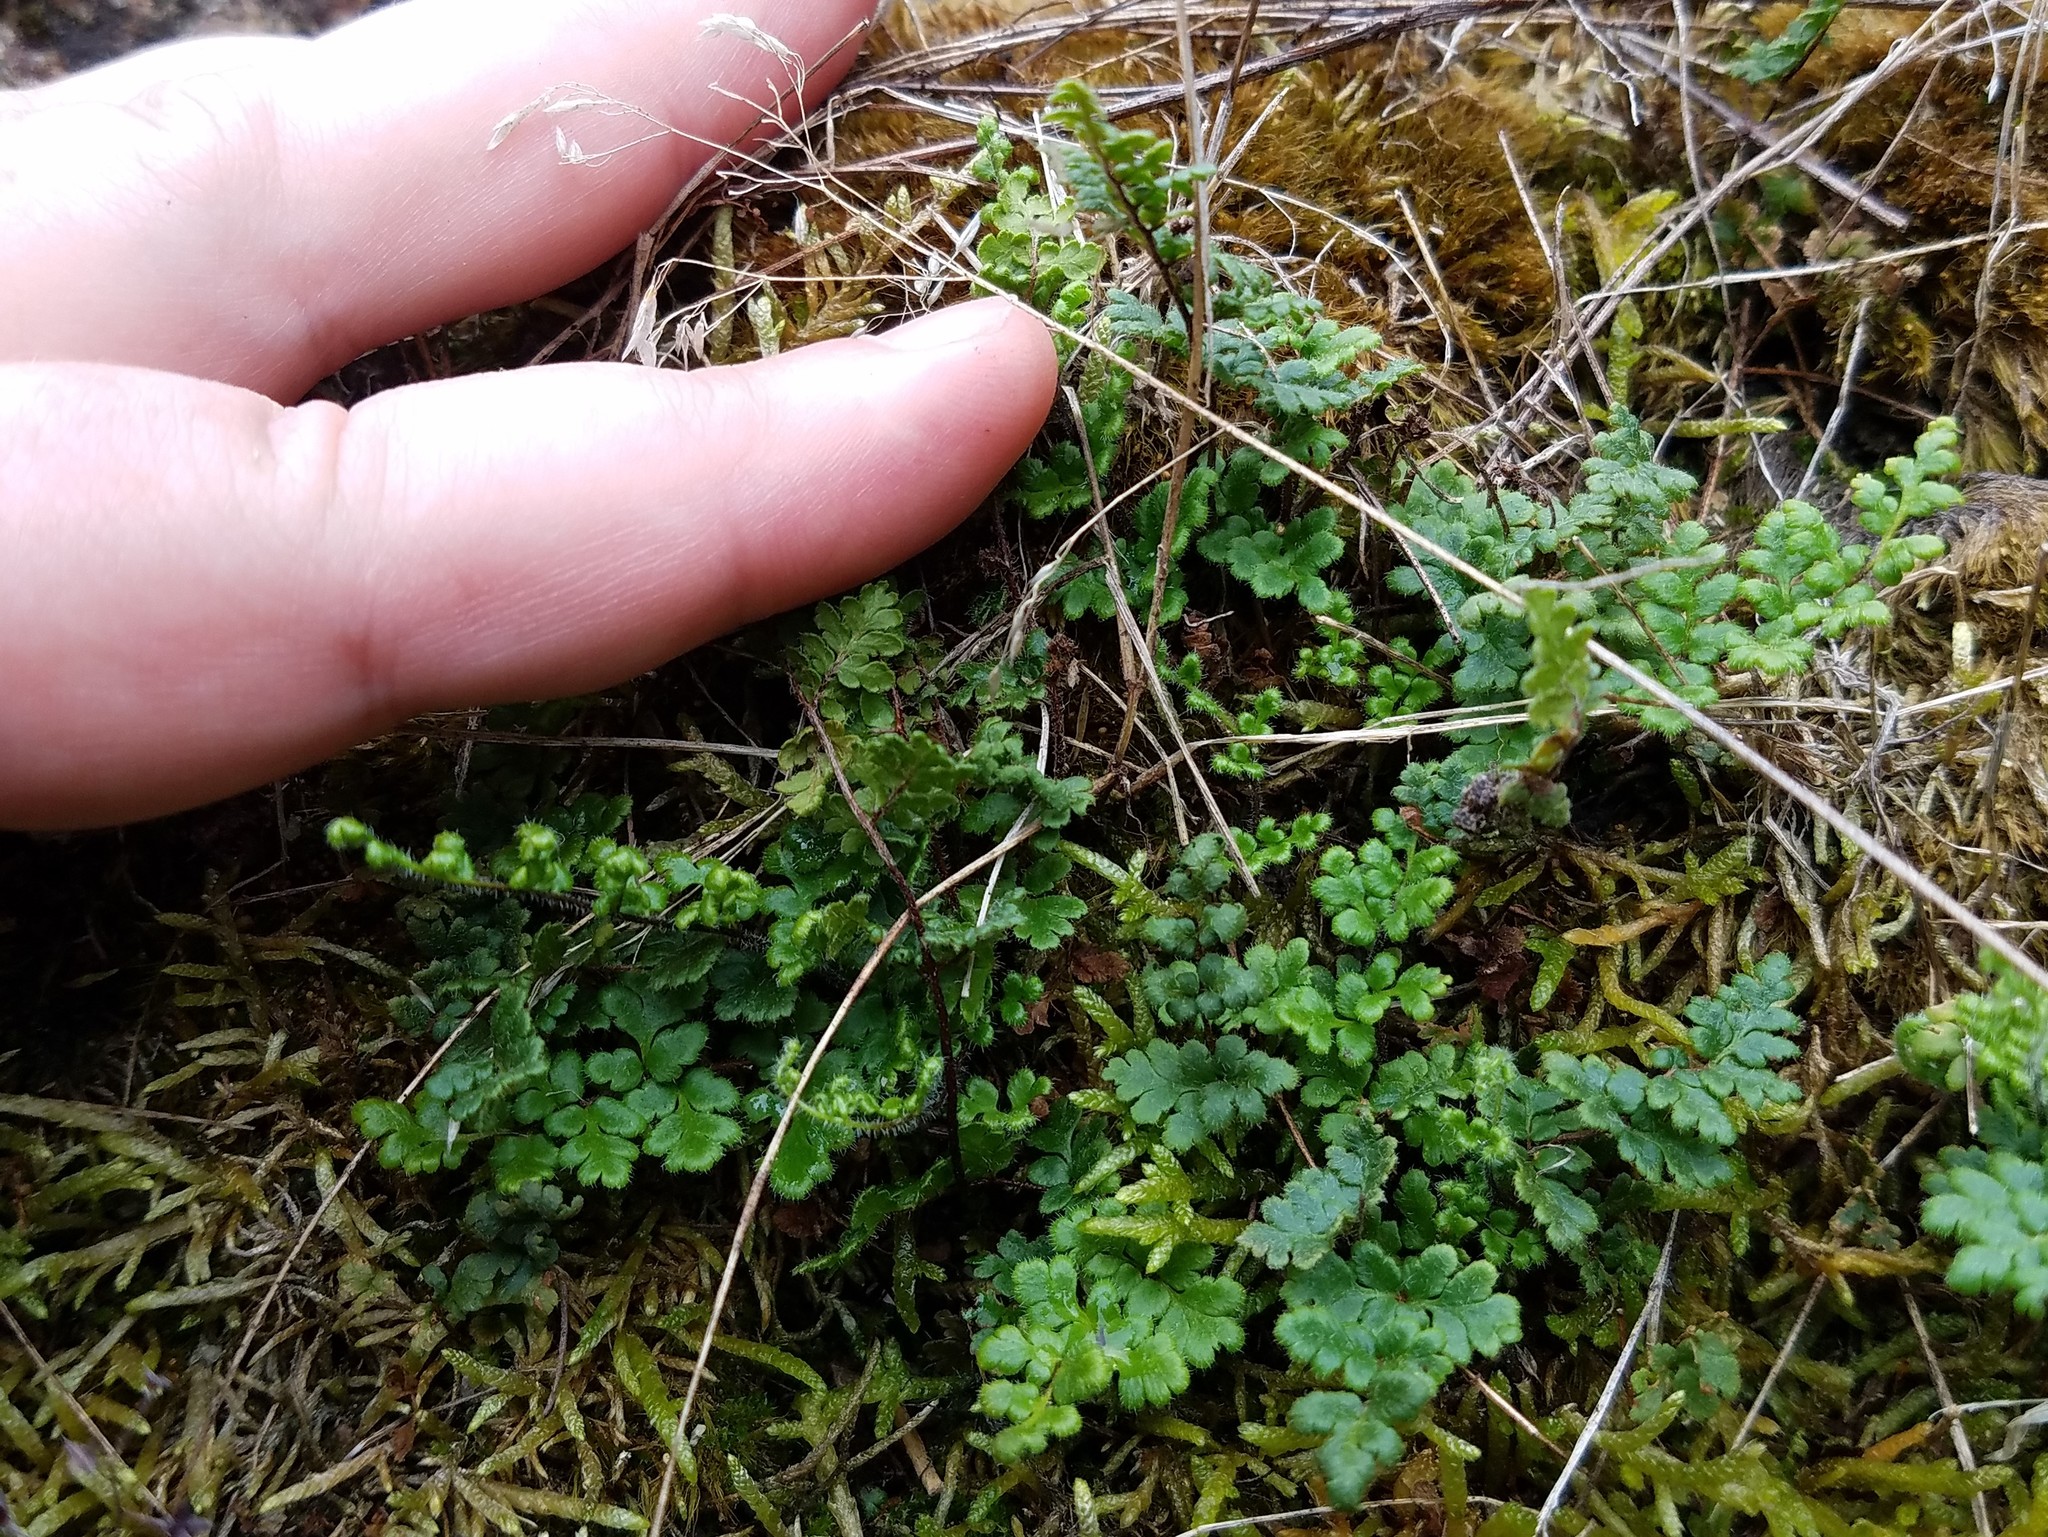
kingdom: Plantae
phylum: Tracheophyta
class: Polypodiopsida
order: Polypodiales
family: Pteridaceae
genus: Myriopteris
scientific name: Myriopteris lanosa
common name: Hairy lip fern
